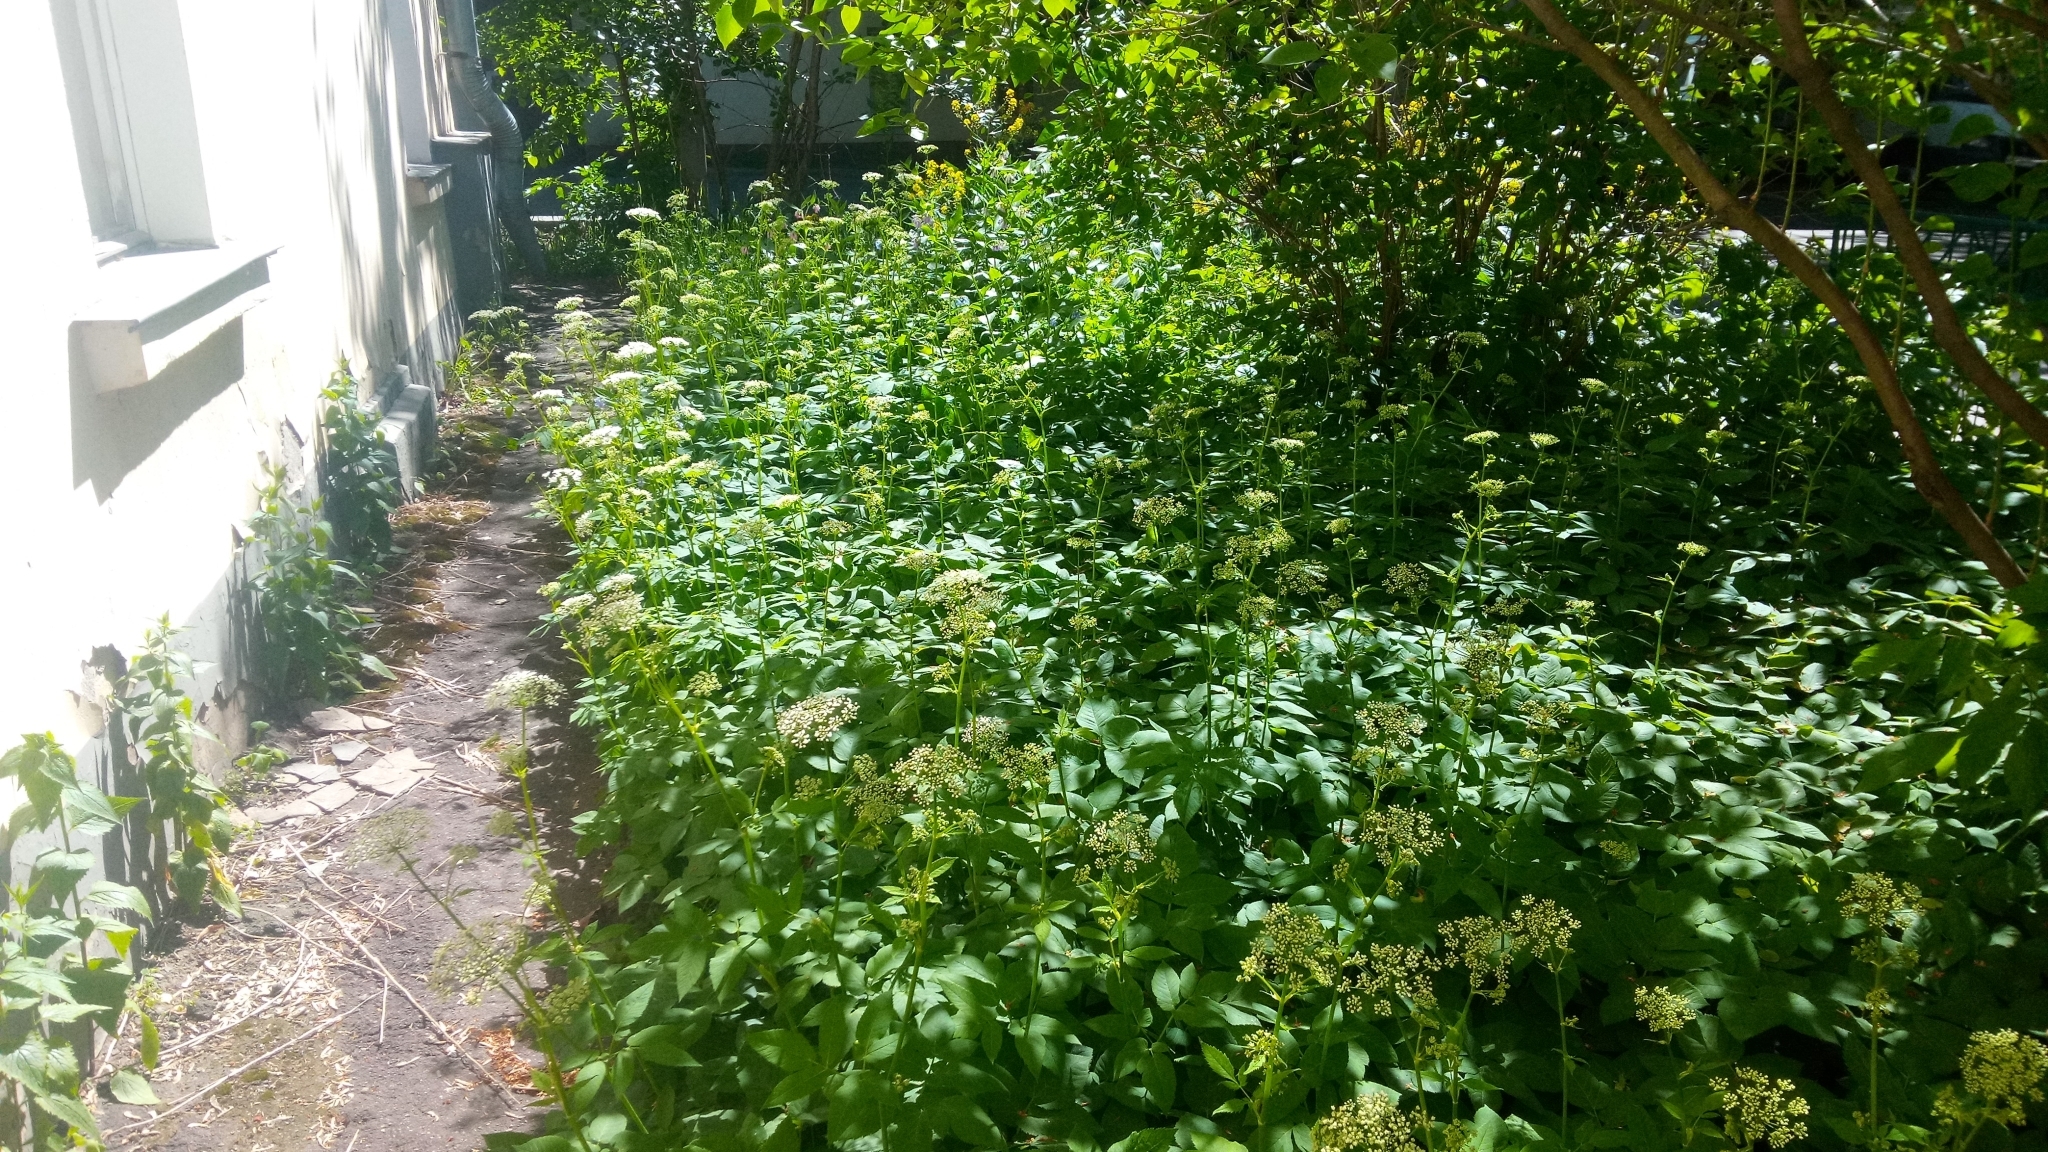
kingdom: Plantae
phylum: Tracheophyta
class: Magnoliopsida
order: Apiales
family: Apiaceae
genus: Aegopodium
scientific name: Aegopodium podagraria
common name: Ground-elder
